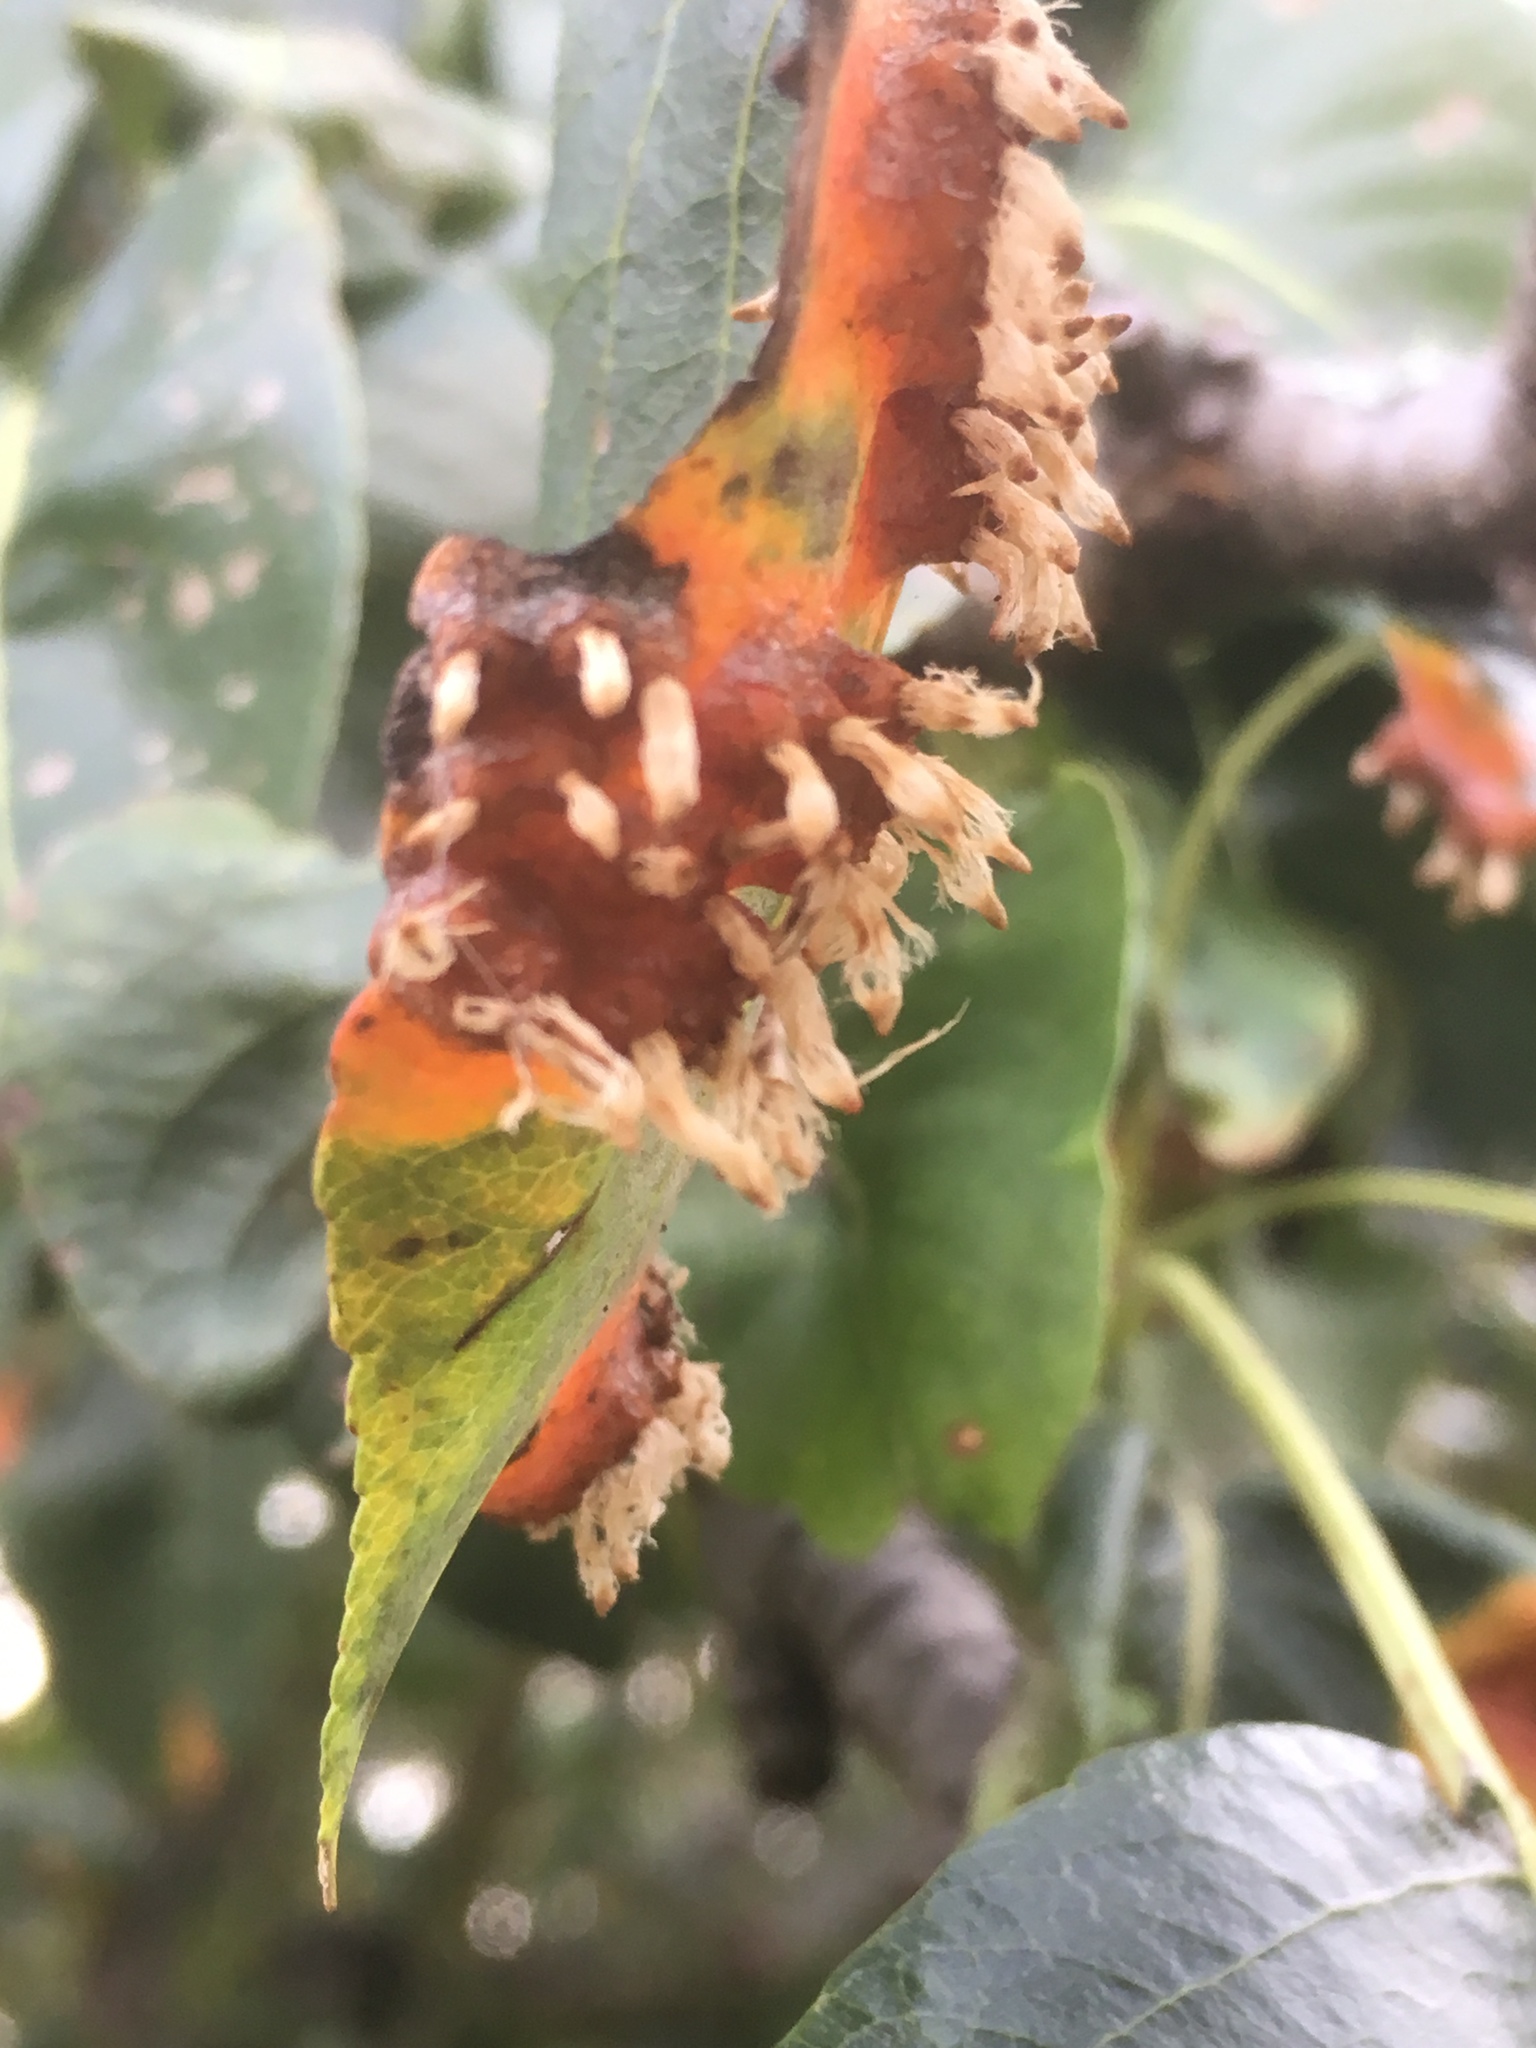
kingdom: Fungi
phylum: Basidiomycota
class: Pucciniomycetes
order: Pucciniales
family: Gymnosporangiaceae
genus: Gymnosporangium
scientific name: Gymnosporangium sabinae
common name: Pear trellis rust fungus
